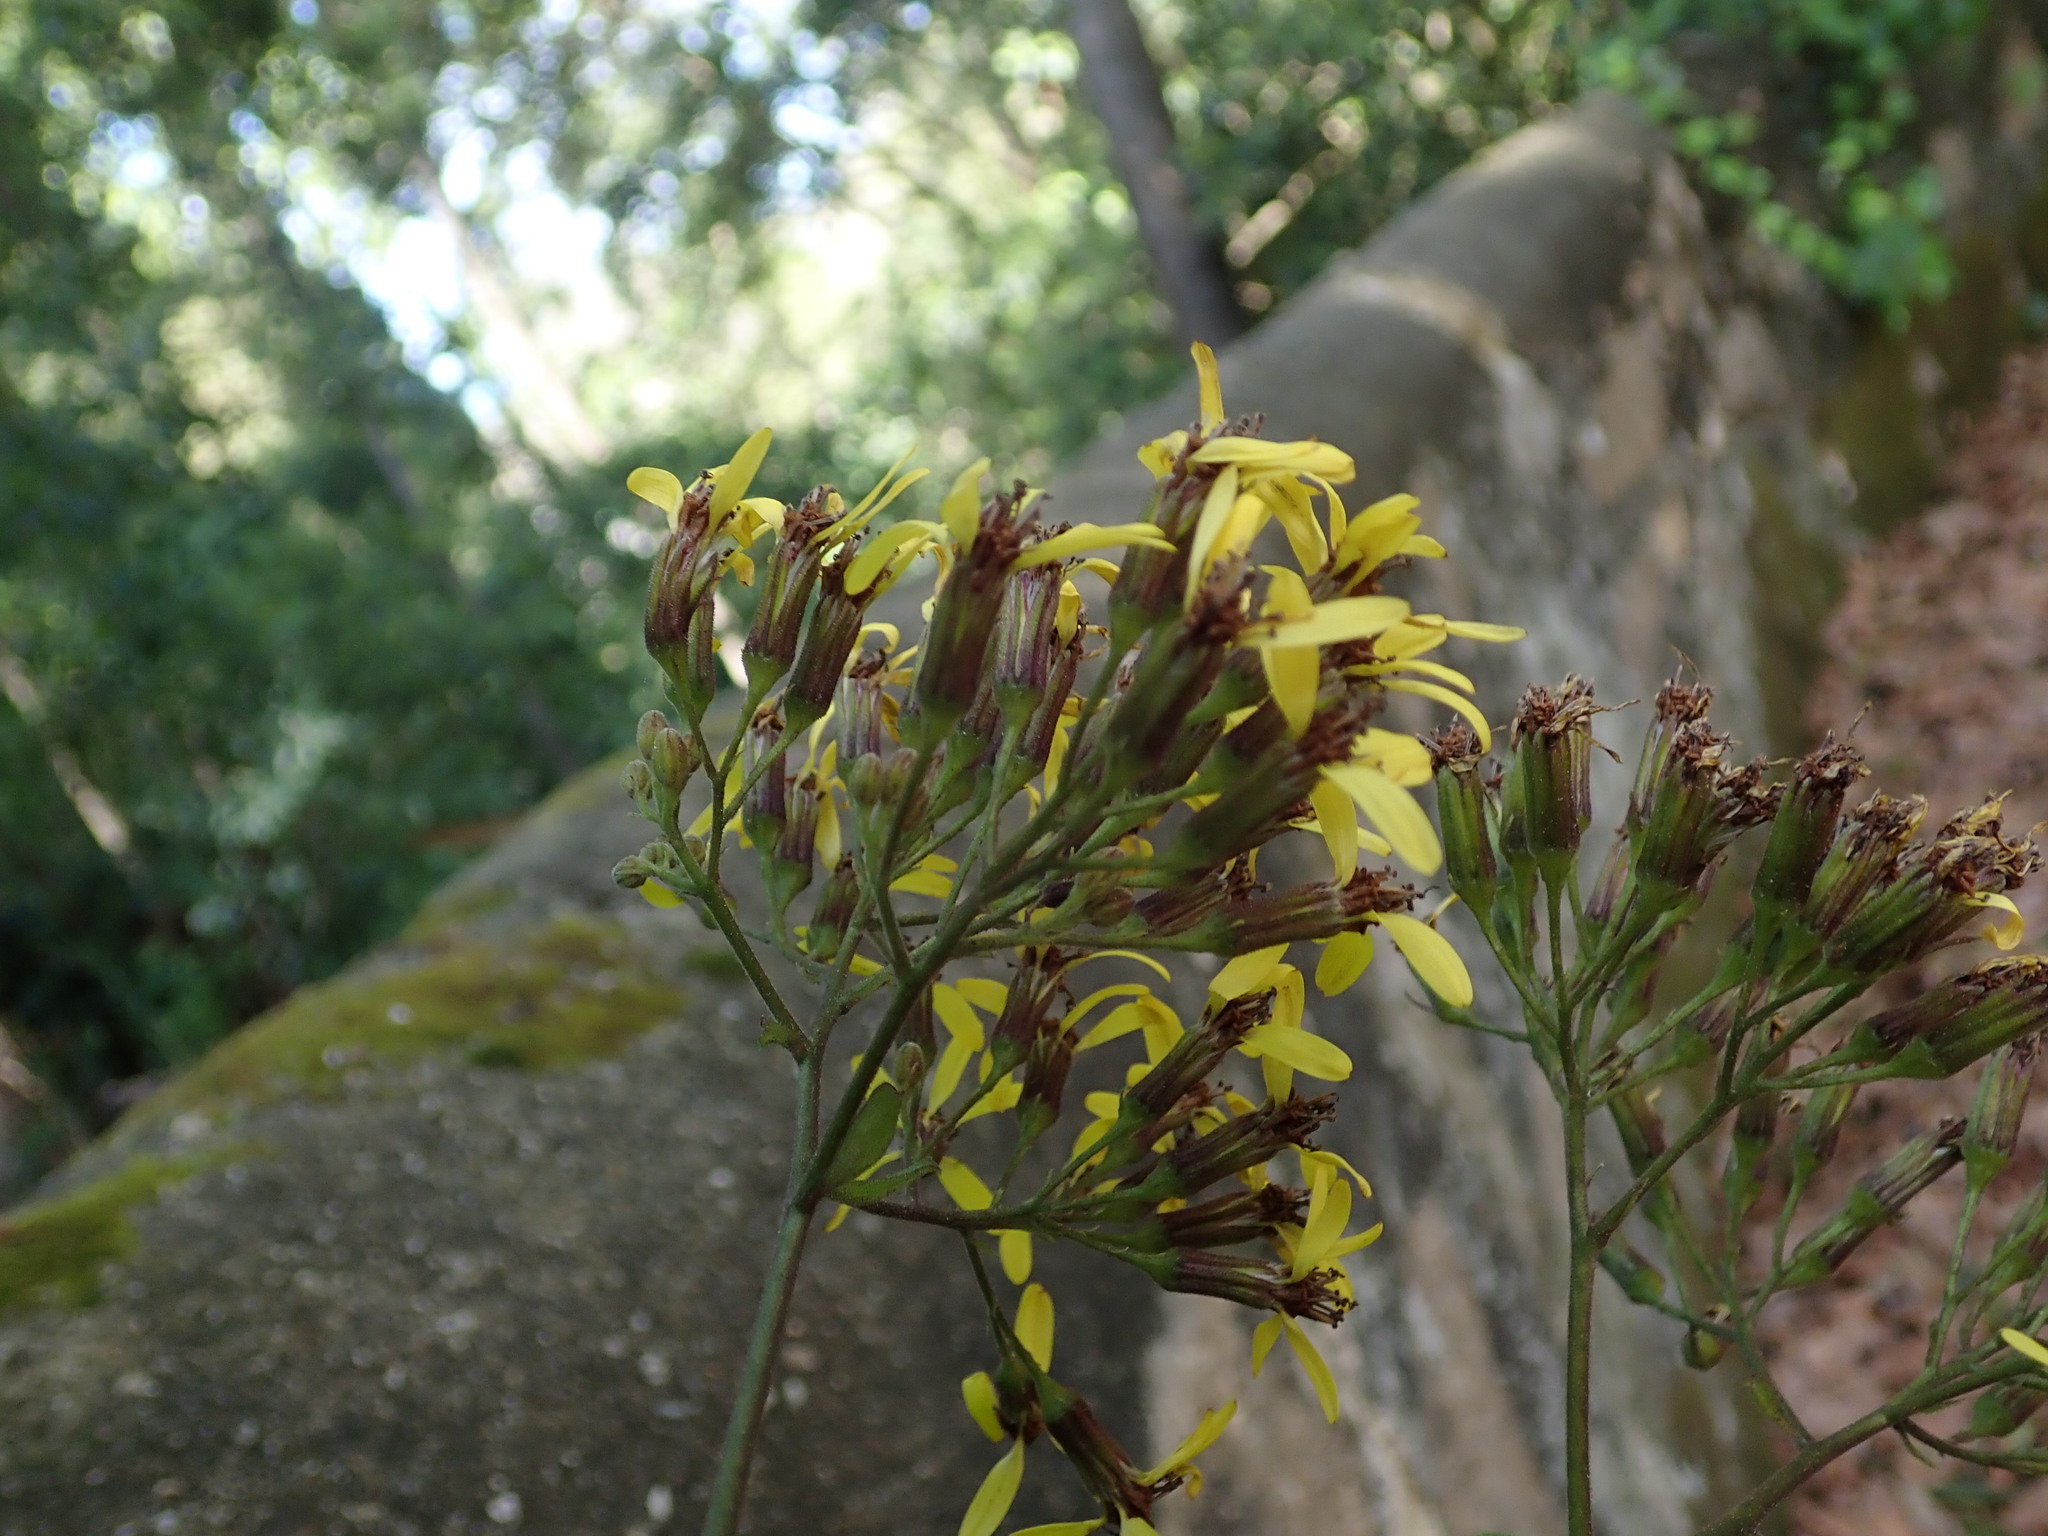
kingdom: Plantae
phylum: Tracheophyta
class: Magnoliopsida
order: Asterales
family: Asteraceae
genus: Delairea
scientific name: Delairea odorata
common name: Cape-ivy
